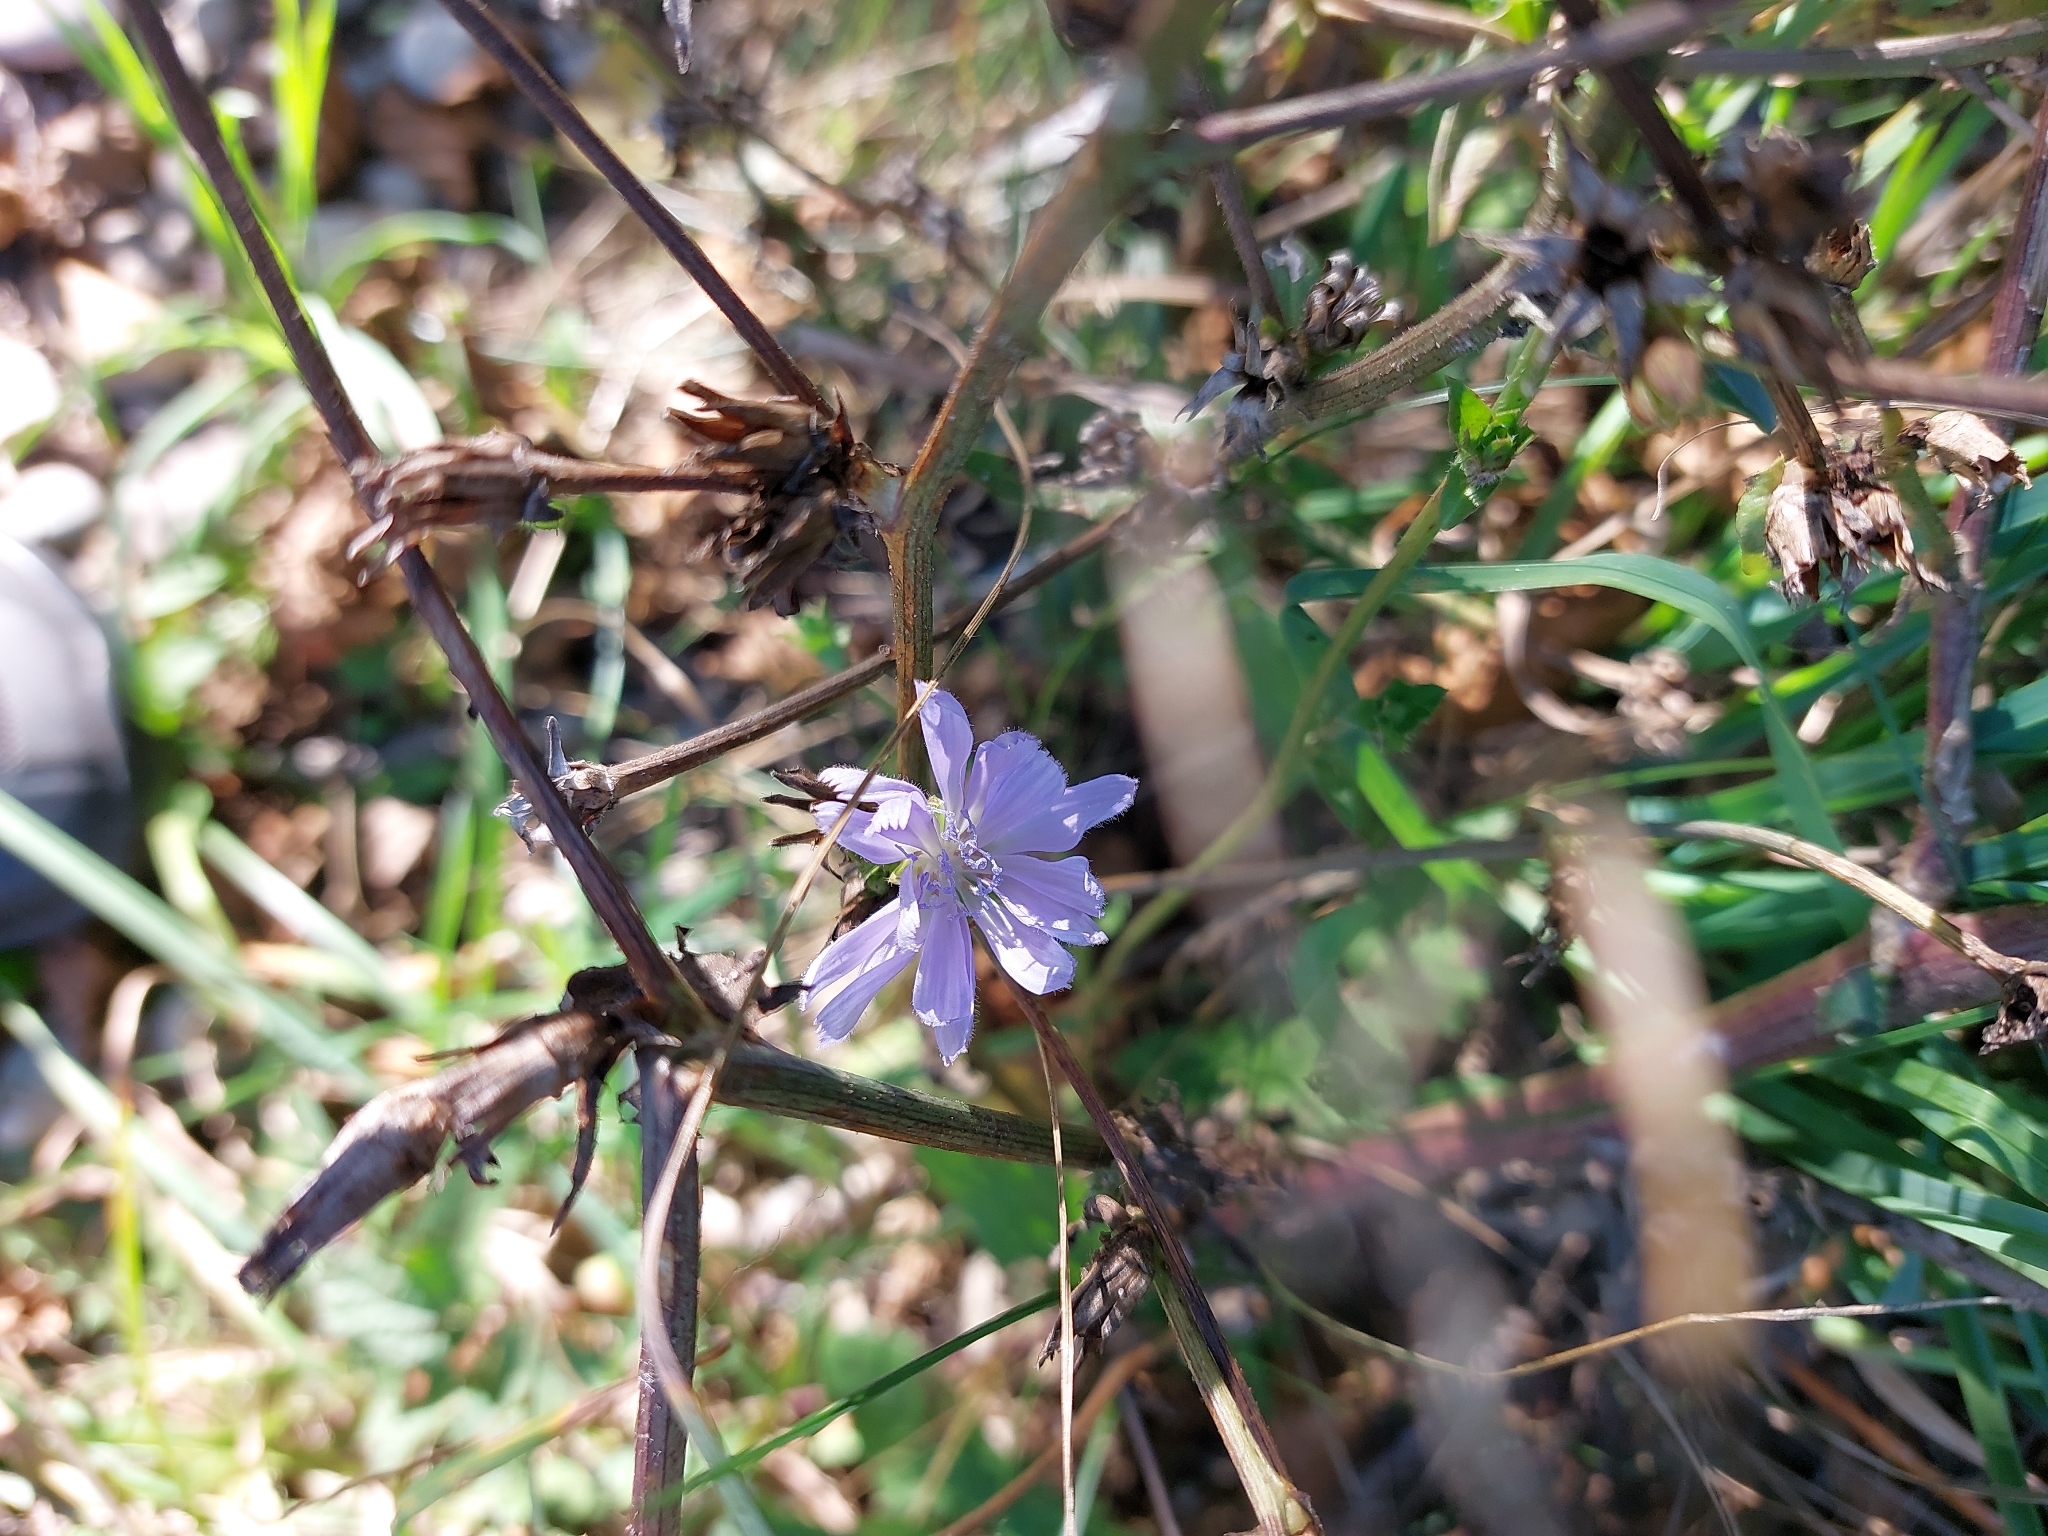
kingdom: Plantae
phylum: Tracheophyta
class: Magnoliopsida
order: Asterales
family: Asteraceae
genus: Cichorium
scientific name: Cichorium intybus
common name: Chicory
